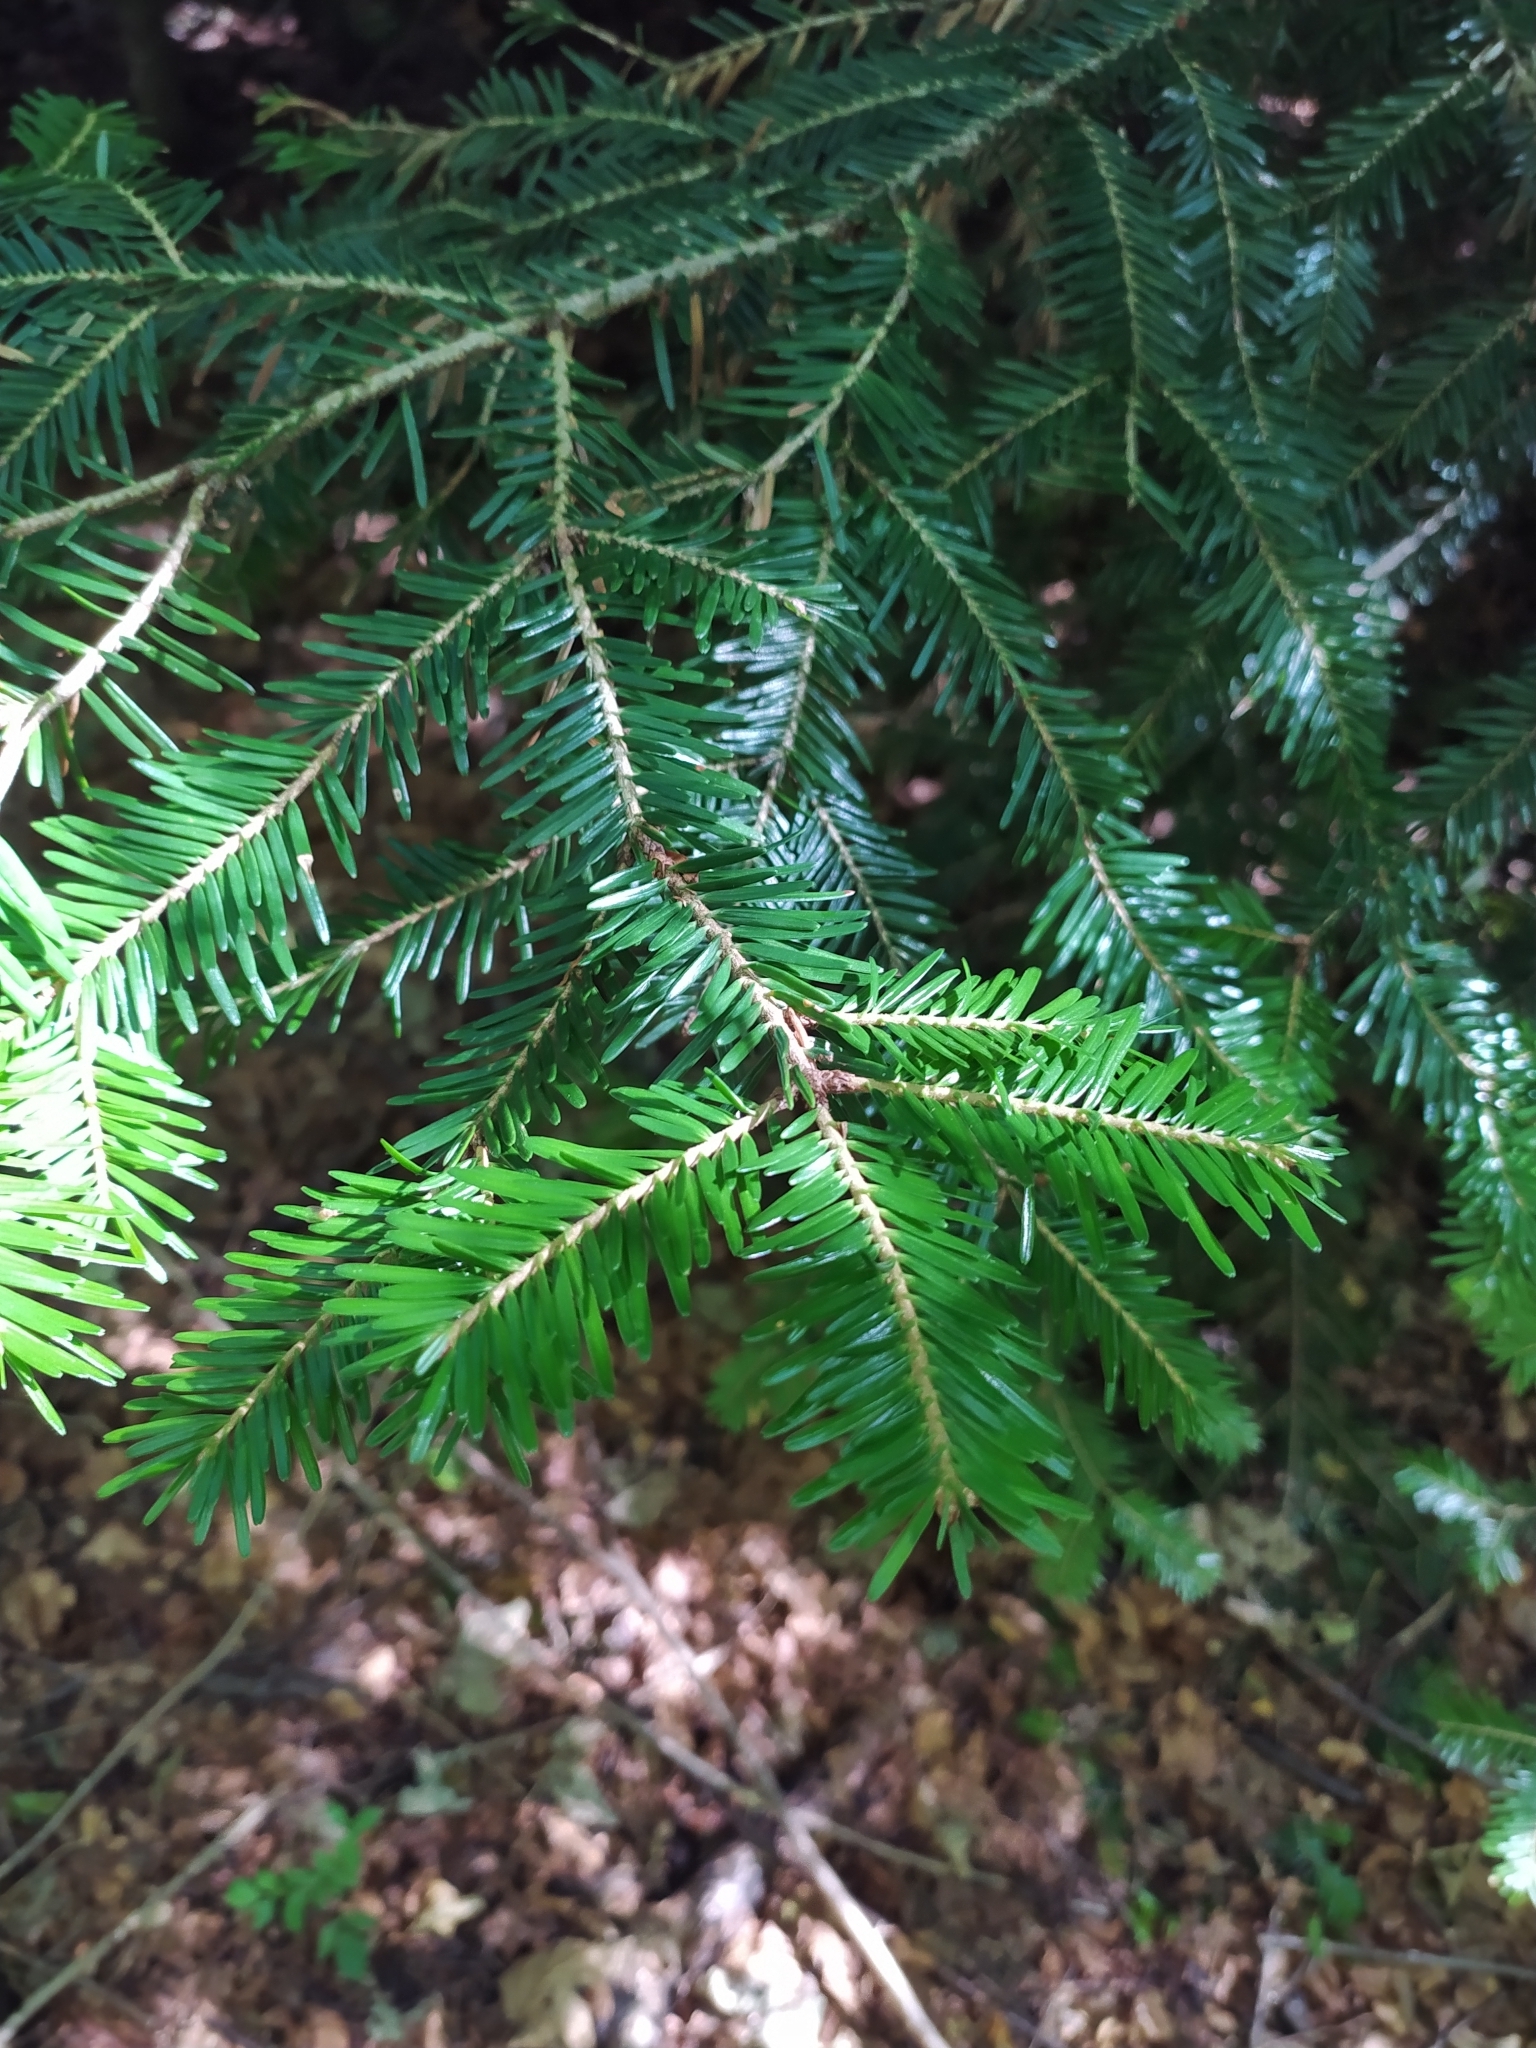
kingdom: Plantae
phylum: Tracheophyta
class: Pinopsida
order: Pinales
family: Pinaceae
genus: Abies
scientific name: Abies alba
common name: Silver fir
